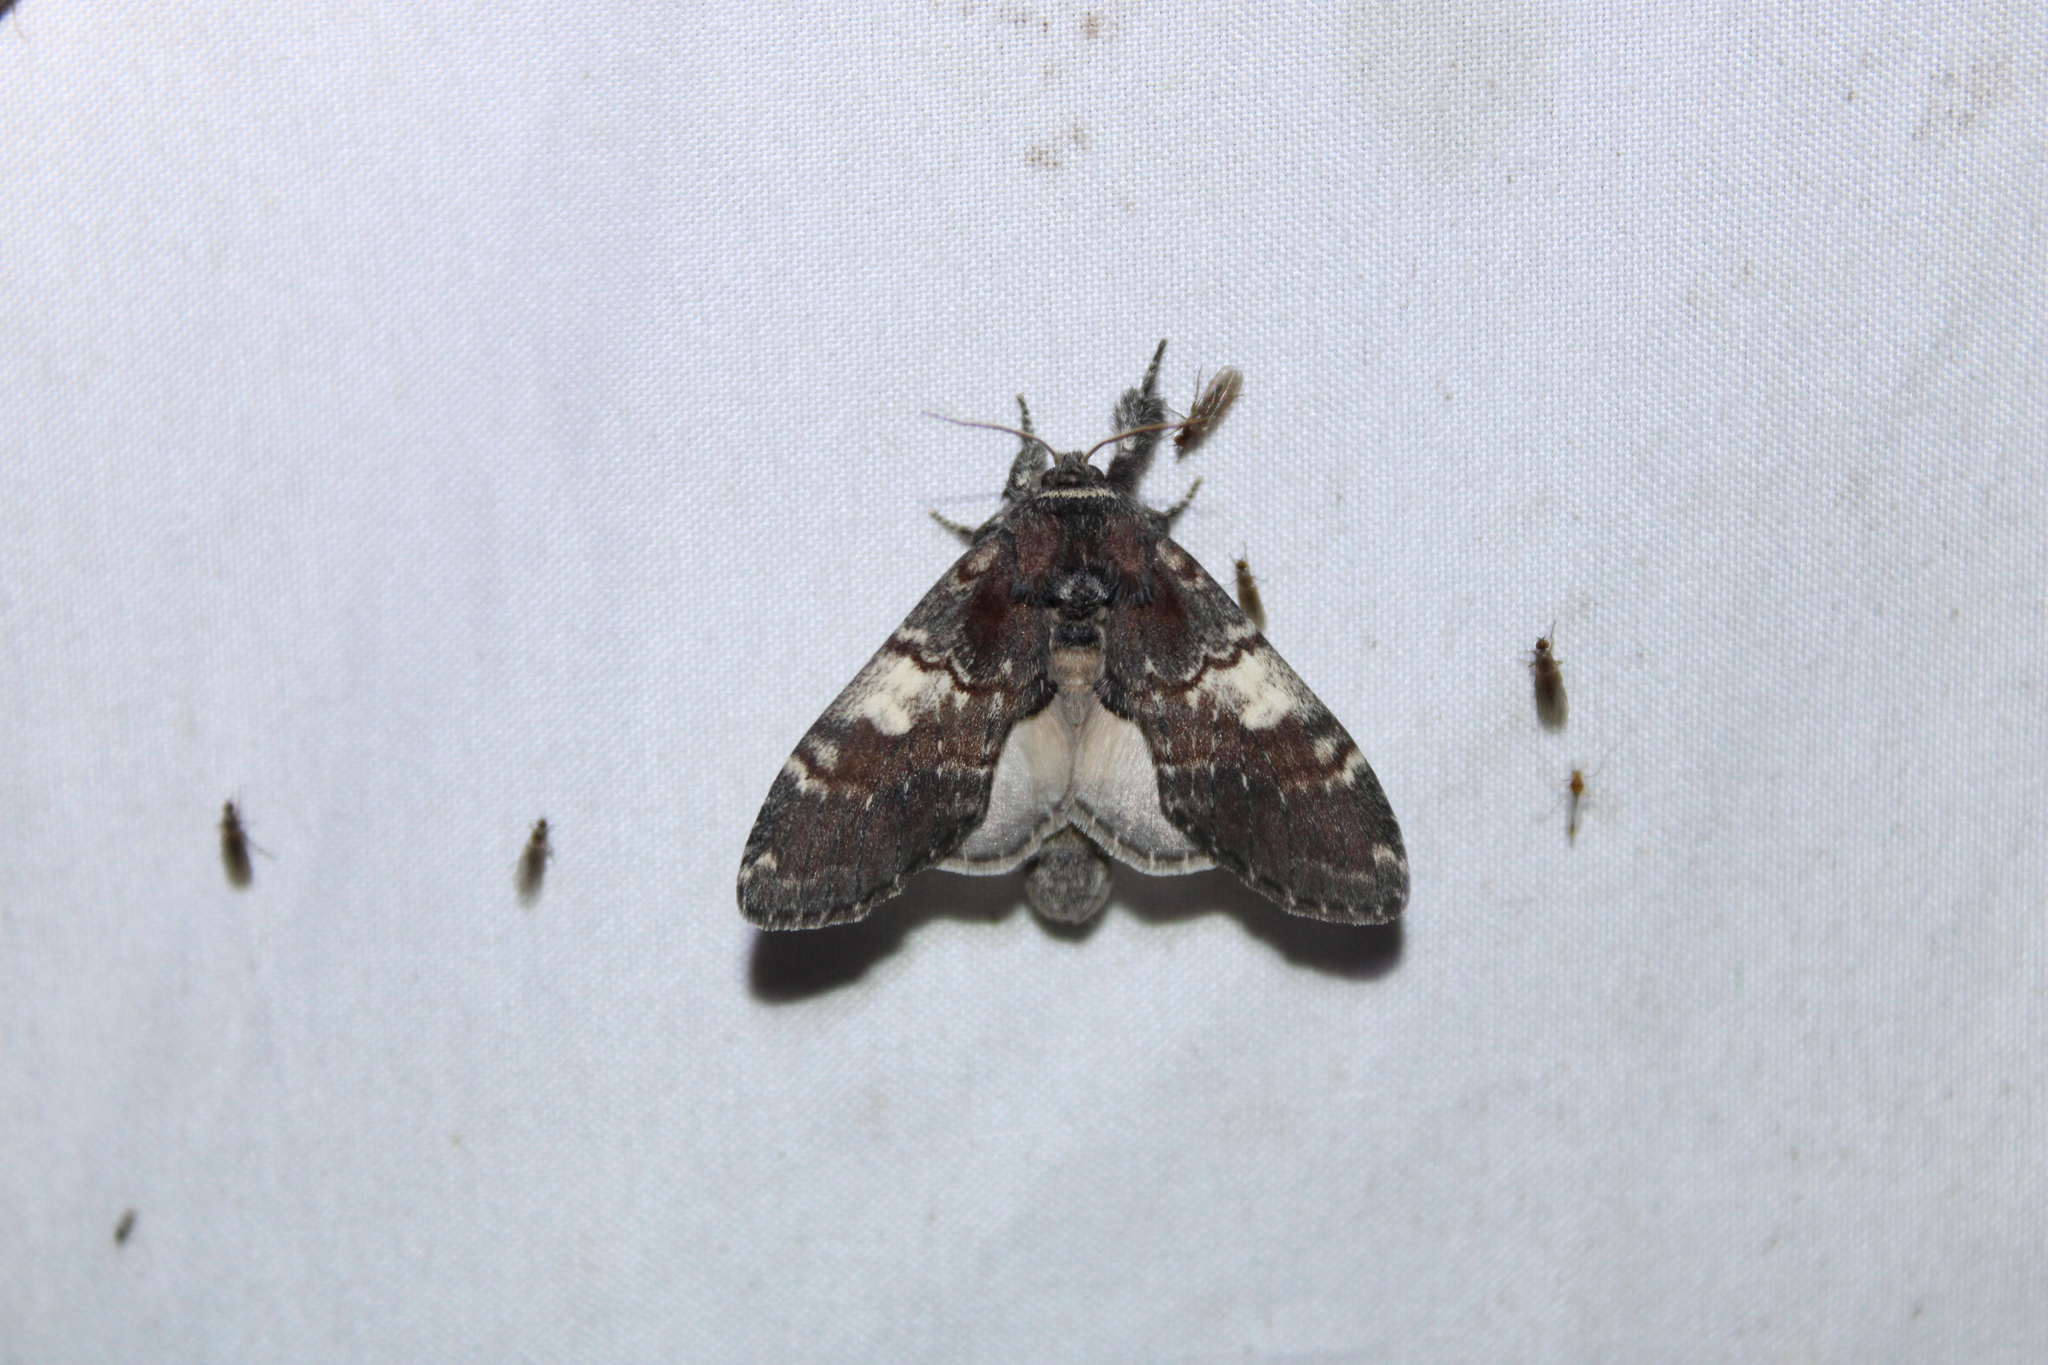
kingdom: Animalia
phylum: Arthropoda
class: Insecta
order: Lepidoptera
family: Notodontidae
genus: Peridea
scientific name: Peridea ferruginea
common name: Chocolate prominent
